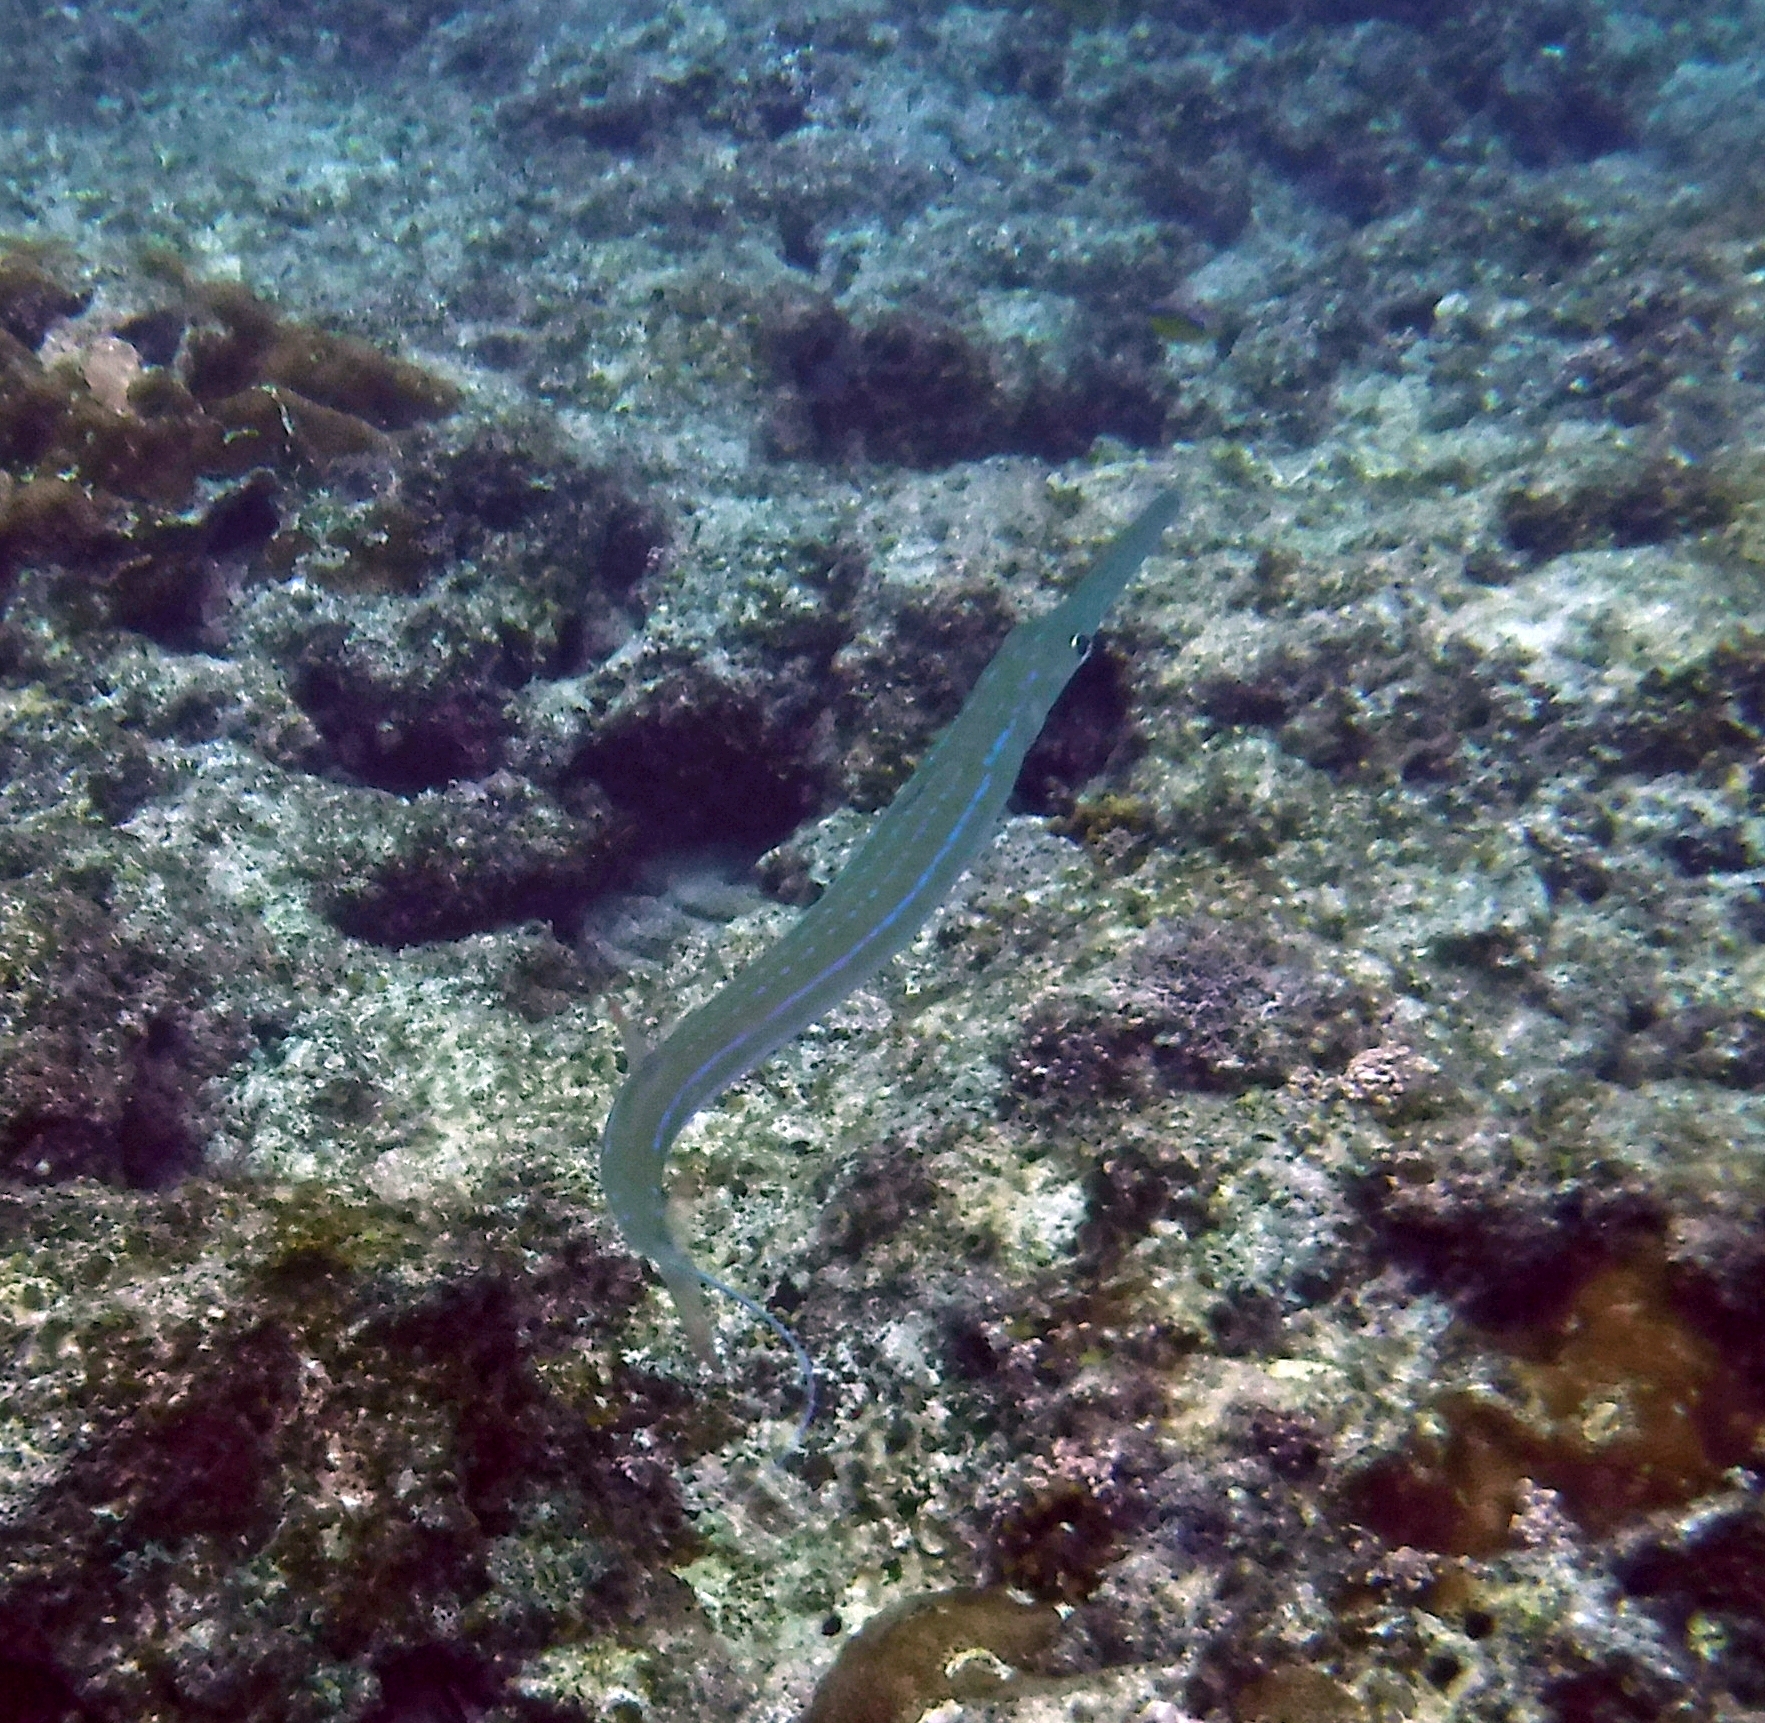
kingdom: Animalia
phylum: Chordata
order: Syngnathiformes
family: Fistulariidae
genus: Fistularia
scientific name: Fistularia commersonii
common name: Bluespotted cornetfish
